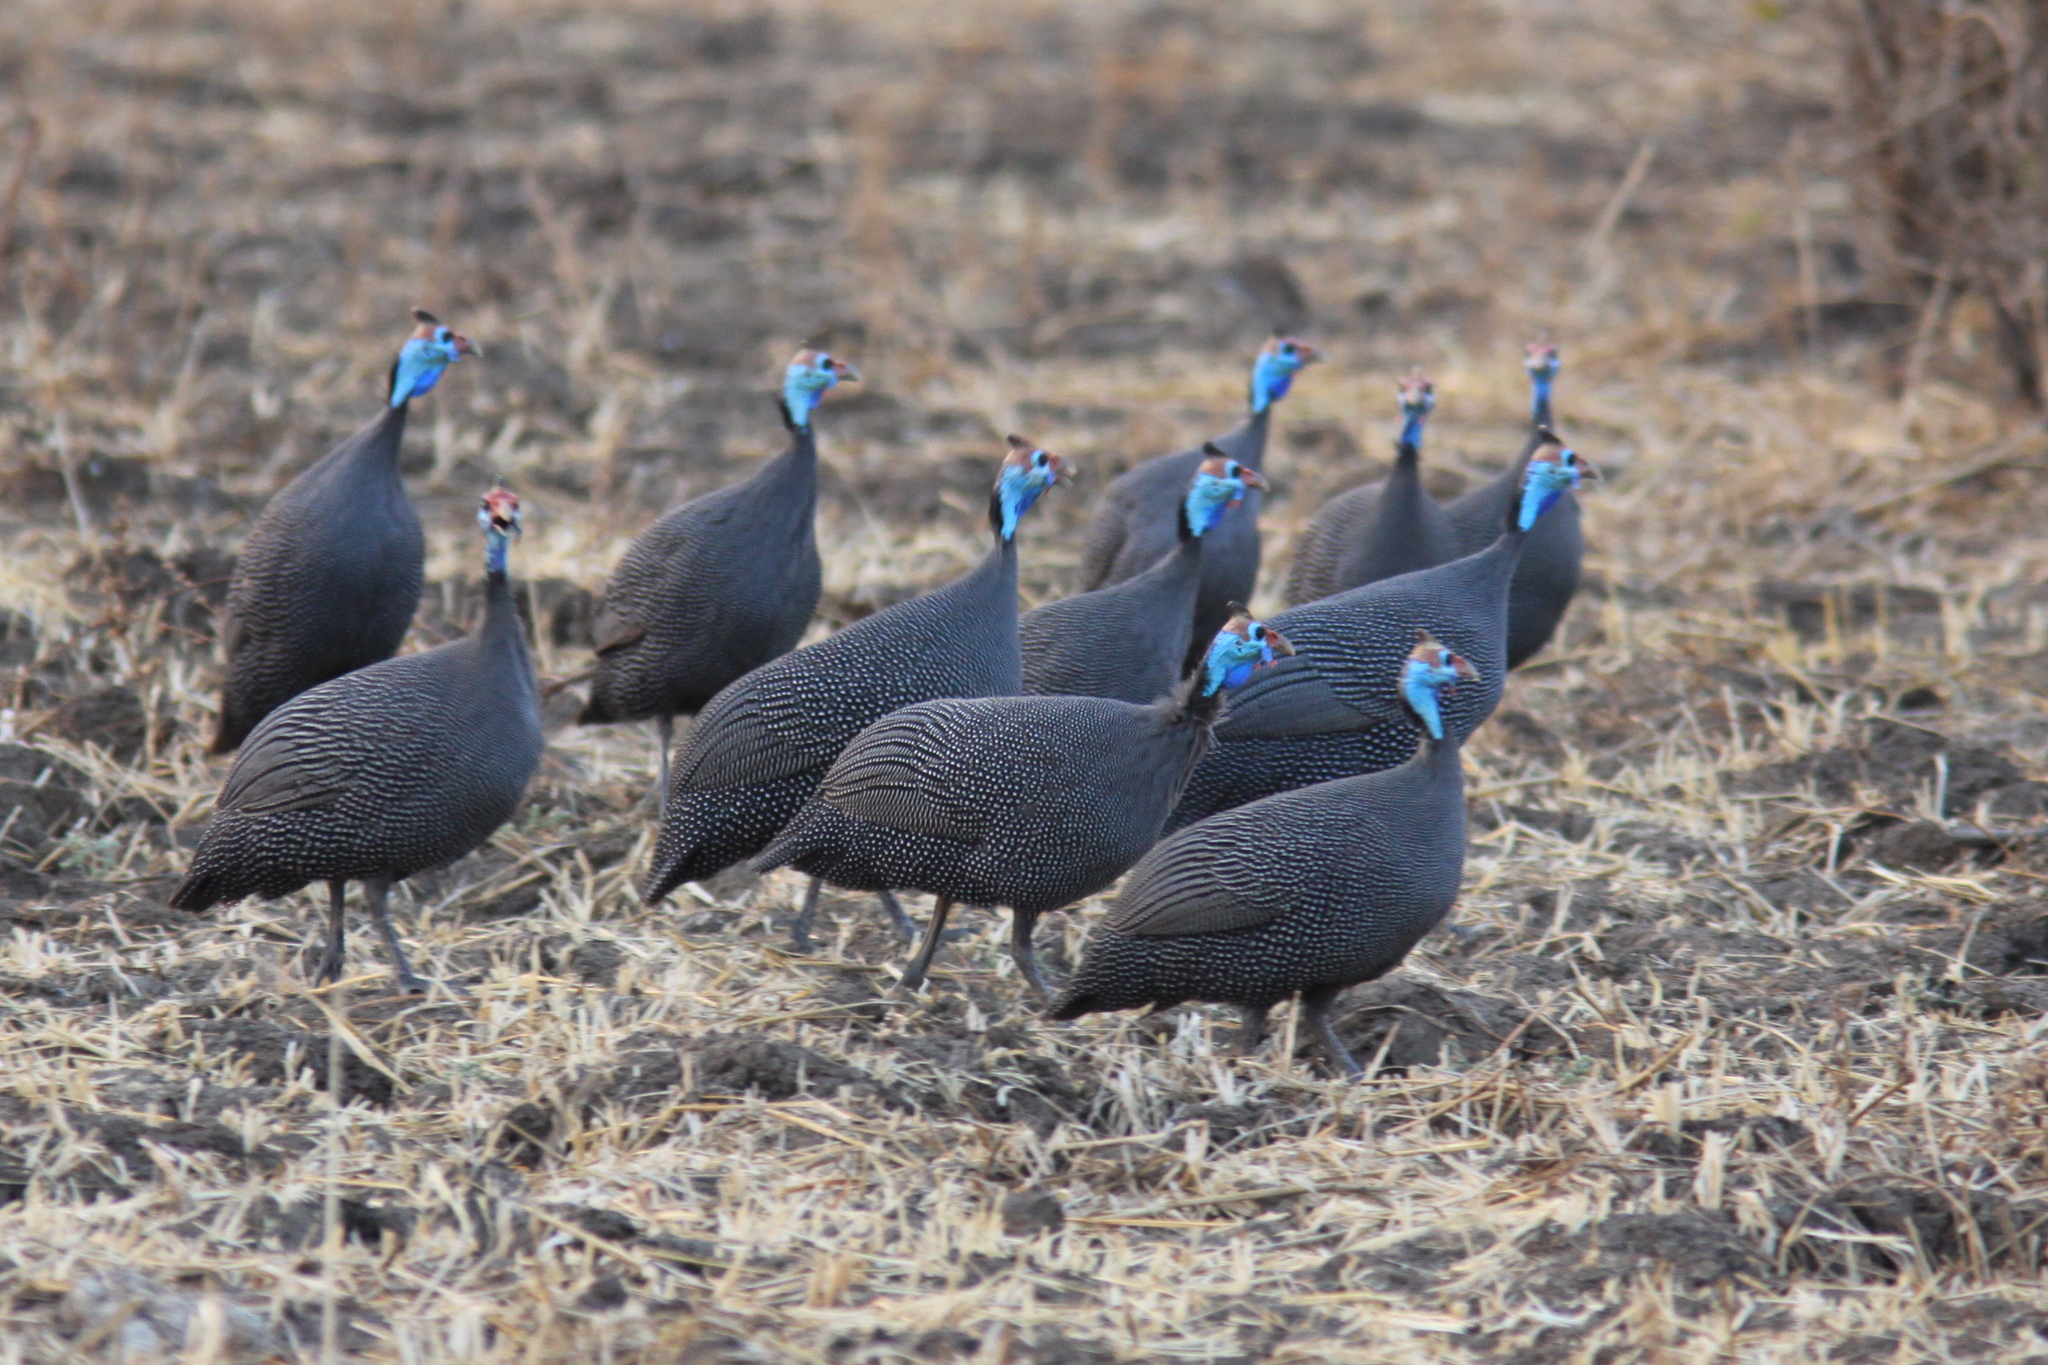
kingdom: Animalia
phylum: Chordata
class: Aves
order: Galliformes
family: Numididae
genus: Numida
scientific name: Numida meleagris
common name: Helmeted guineafowl
